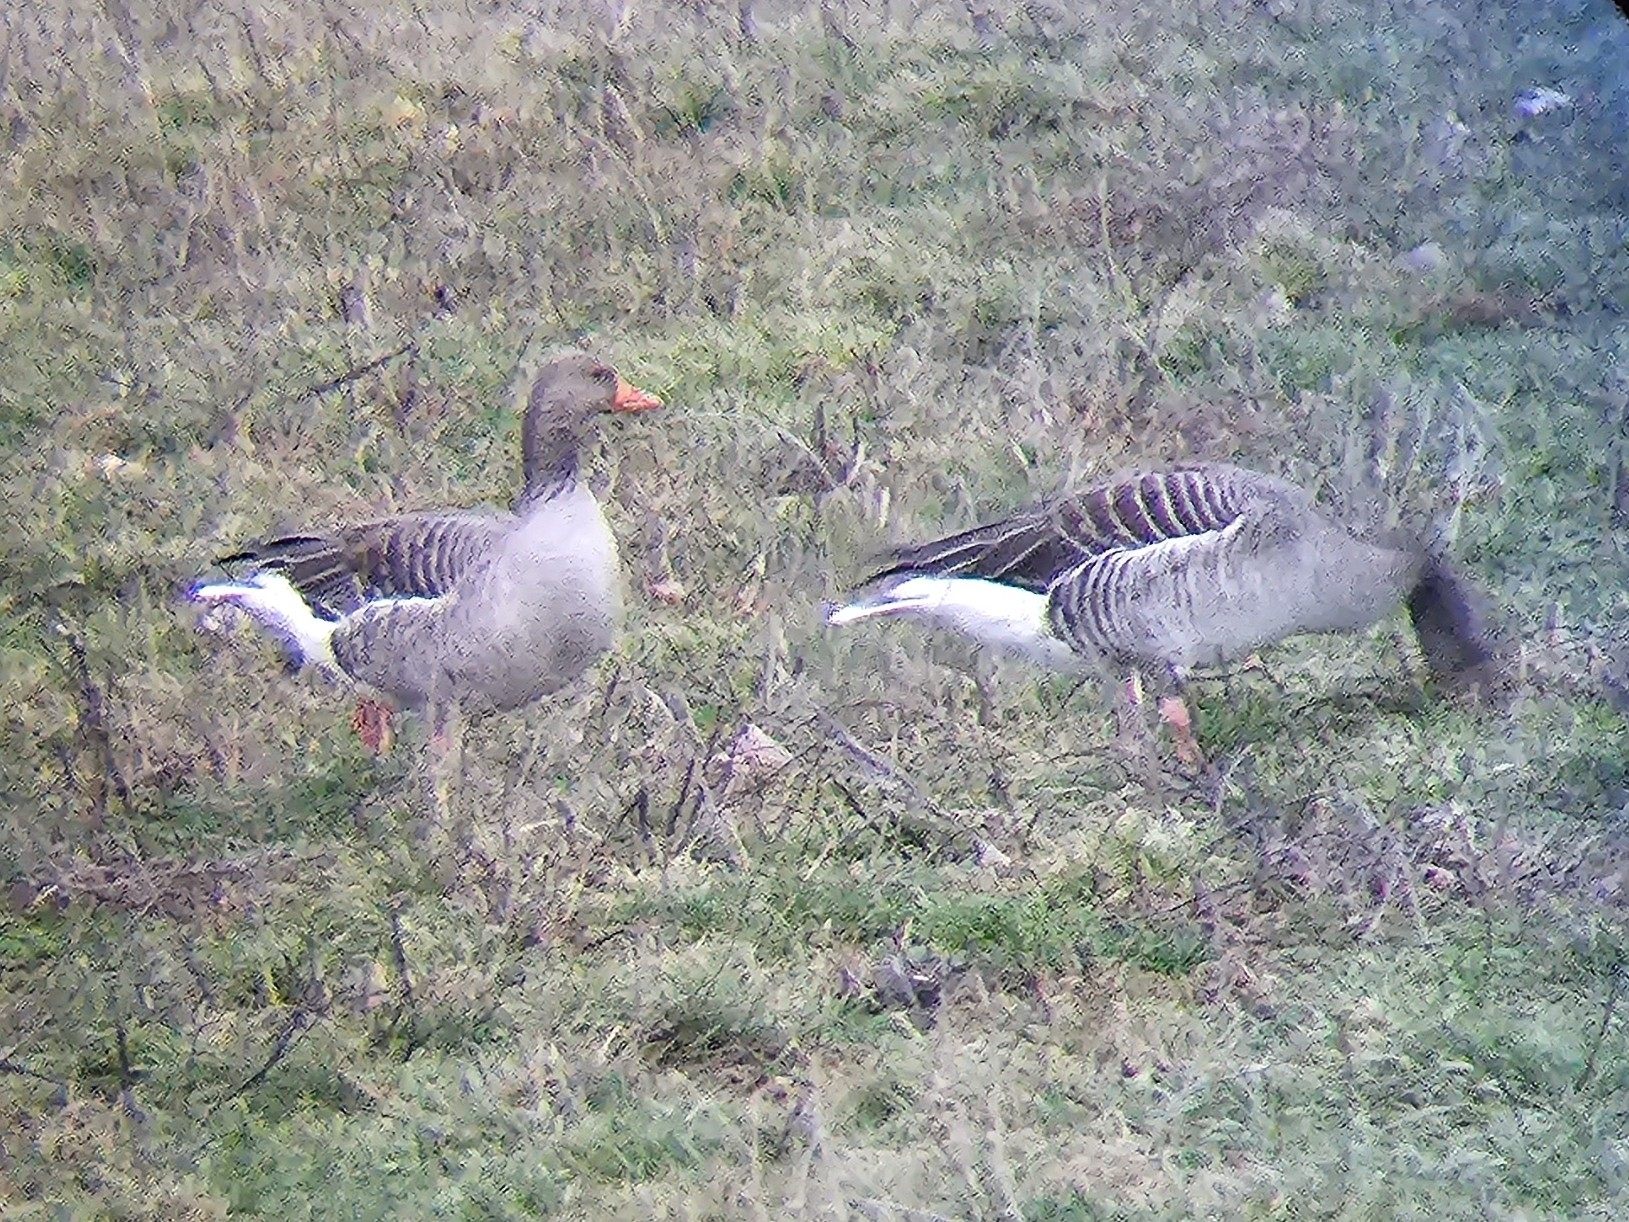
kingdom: Animalia
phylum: Chordata
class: Aves
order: Anseriformes
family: Anatidae
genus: Anser
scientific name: Anser anser
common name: Greylag goose
